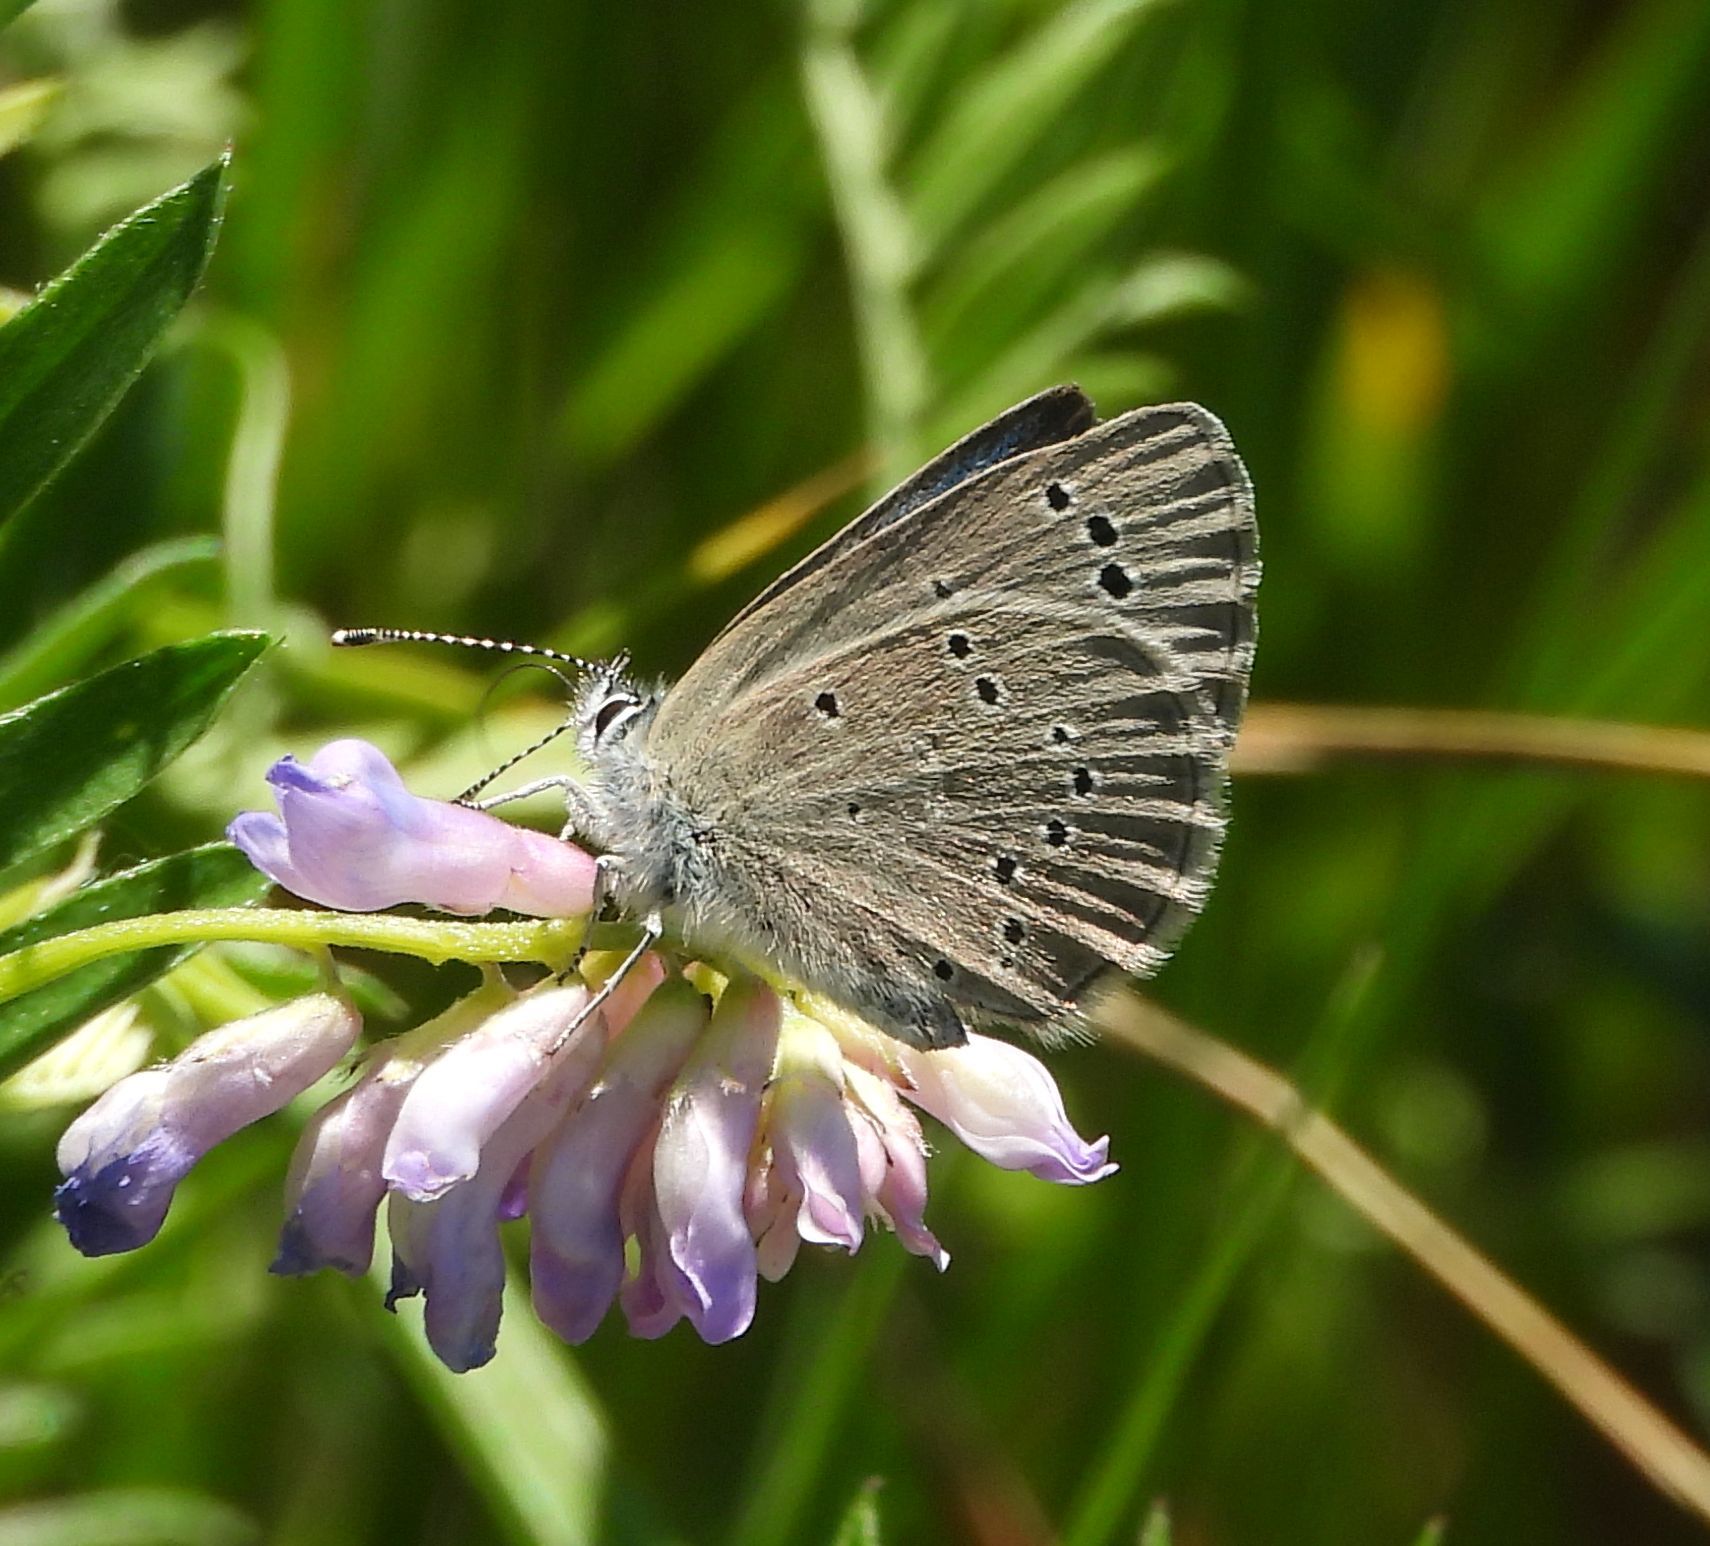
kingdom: Animalia
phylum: Arthropoda
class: Insecta
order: Lepidoptera
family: Lycaenidae
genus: Glaucopsyche
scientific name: Glaucopsyche lygdamus
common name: Silvery blue
